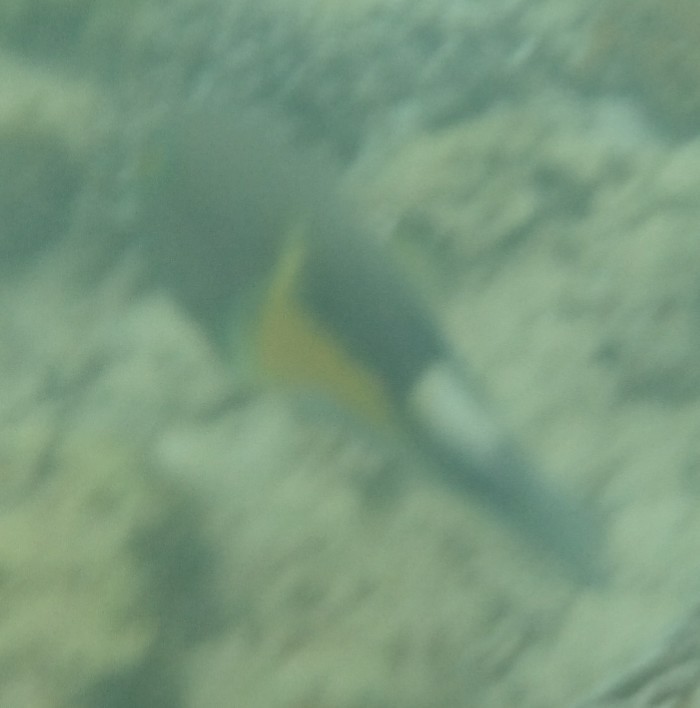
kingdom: Animalia
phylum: Chordata
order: Perciformes
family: Labridae
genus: Choerodon
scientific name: Choerodon anchorago
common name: Anchor tuskfish
